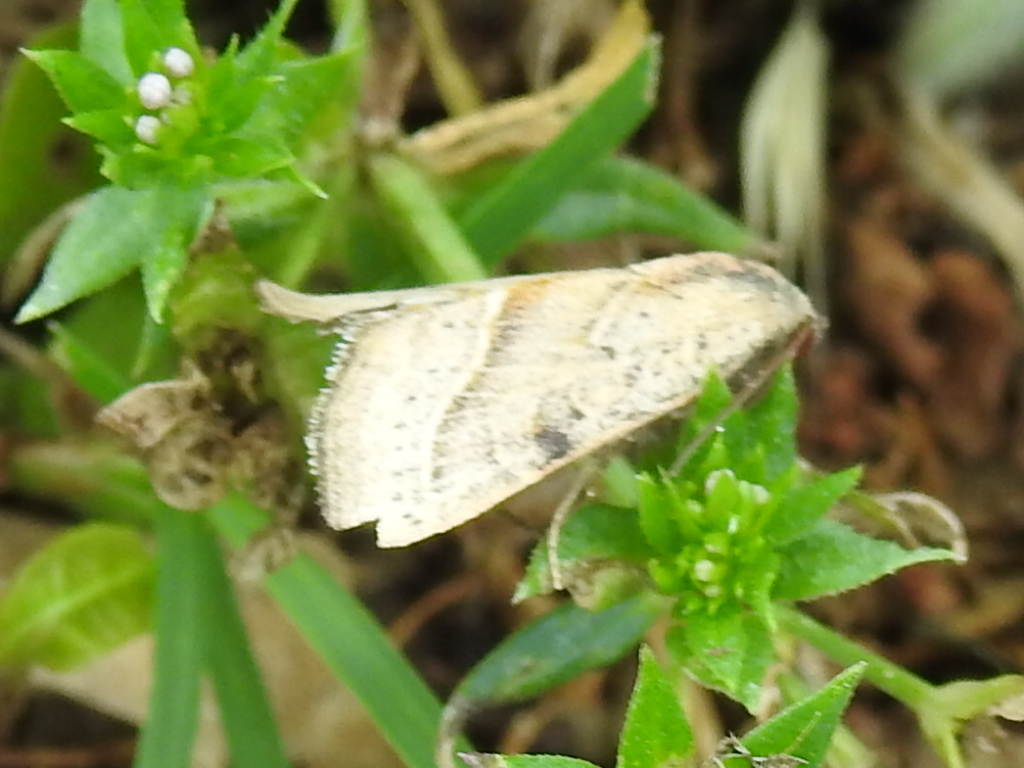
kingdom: Animalia
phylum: Arthropoda
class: Insecta
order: Lepidoptera
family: Noctuidae
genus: Galgula
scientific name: Galgula partita
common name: Wedgeling
